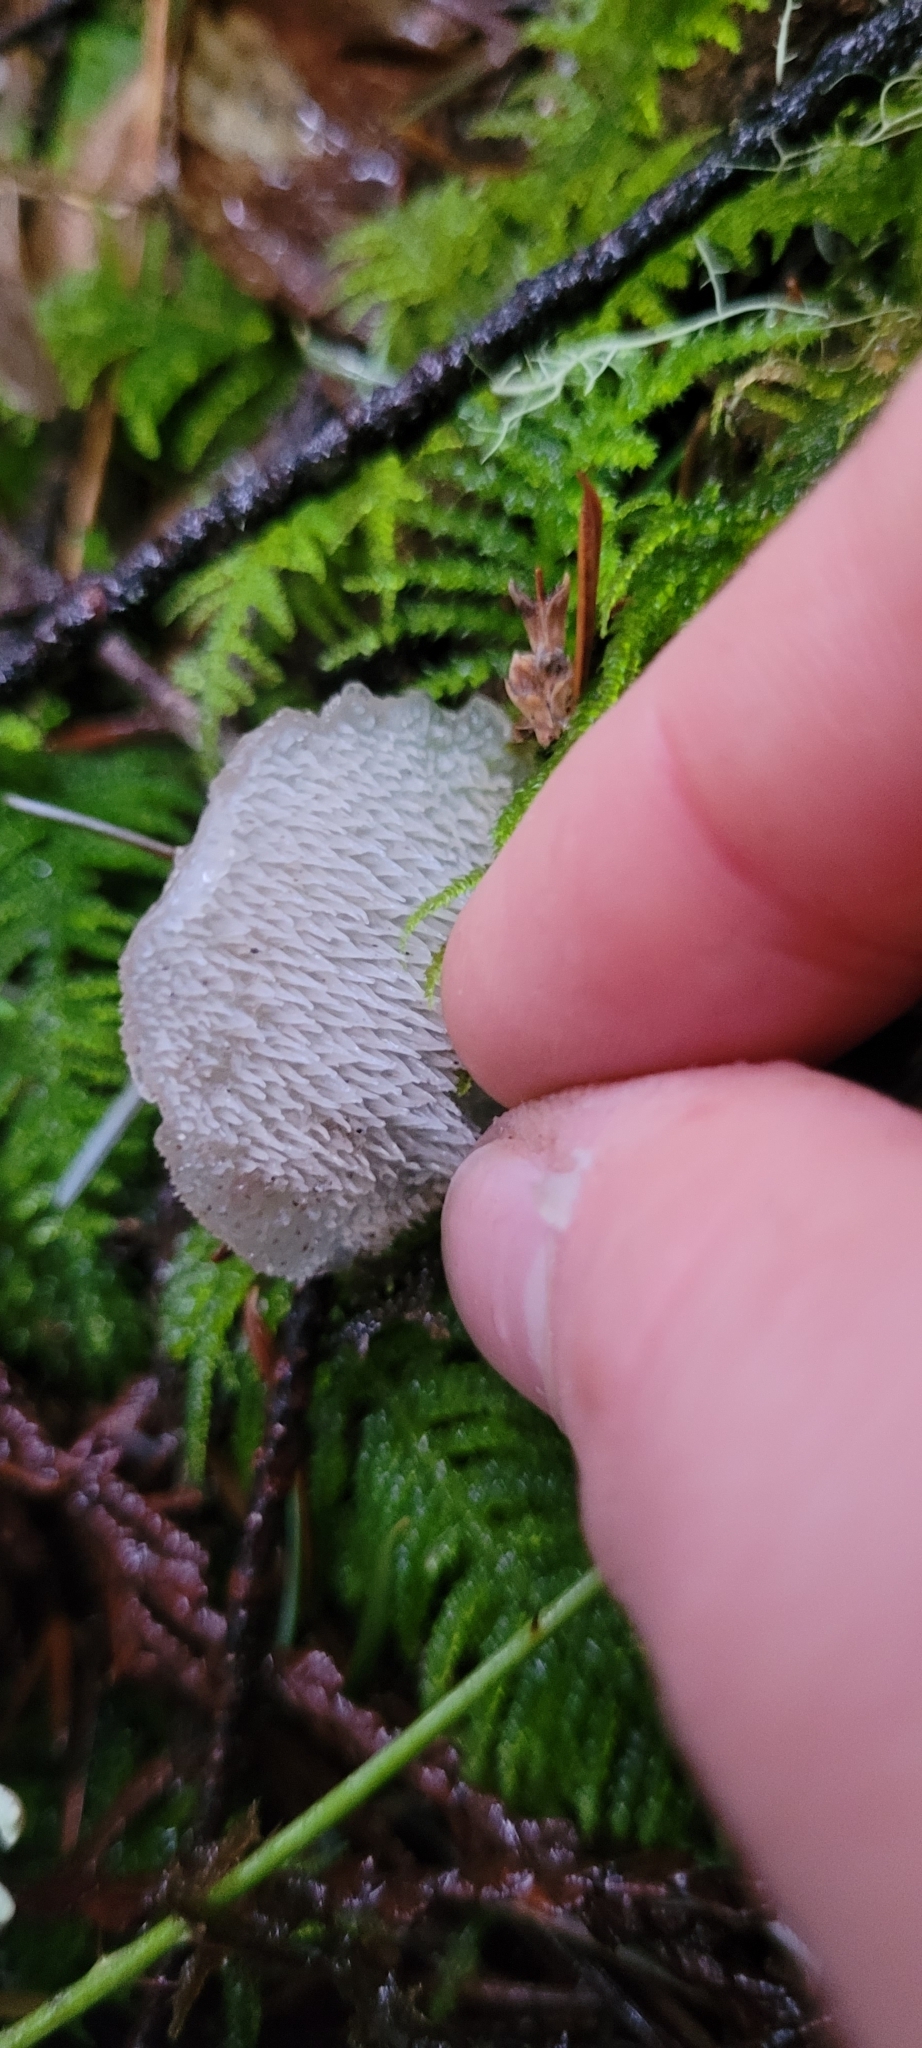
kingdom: Fungi
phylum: Basidiomycota
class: Agaricomycetes
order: Auriculariales
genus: Pseudohydnum
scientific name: Pseudohydnum gelatinosum
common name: Jelly tongue
